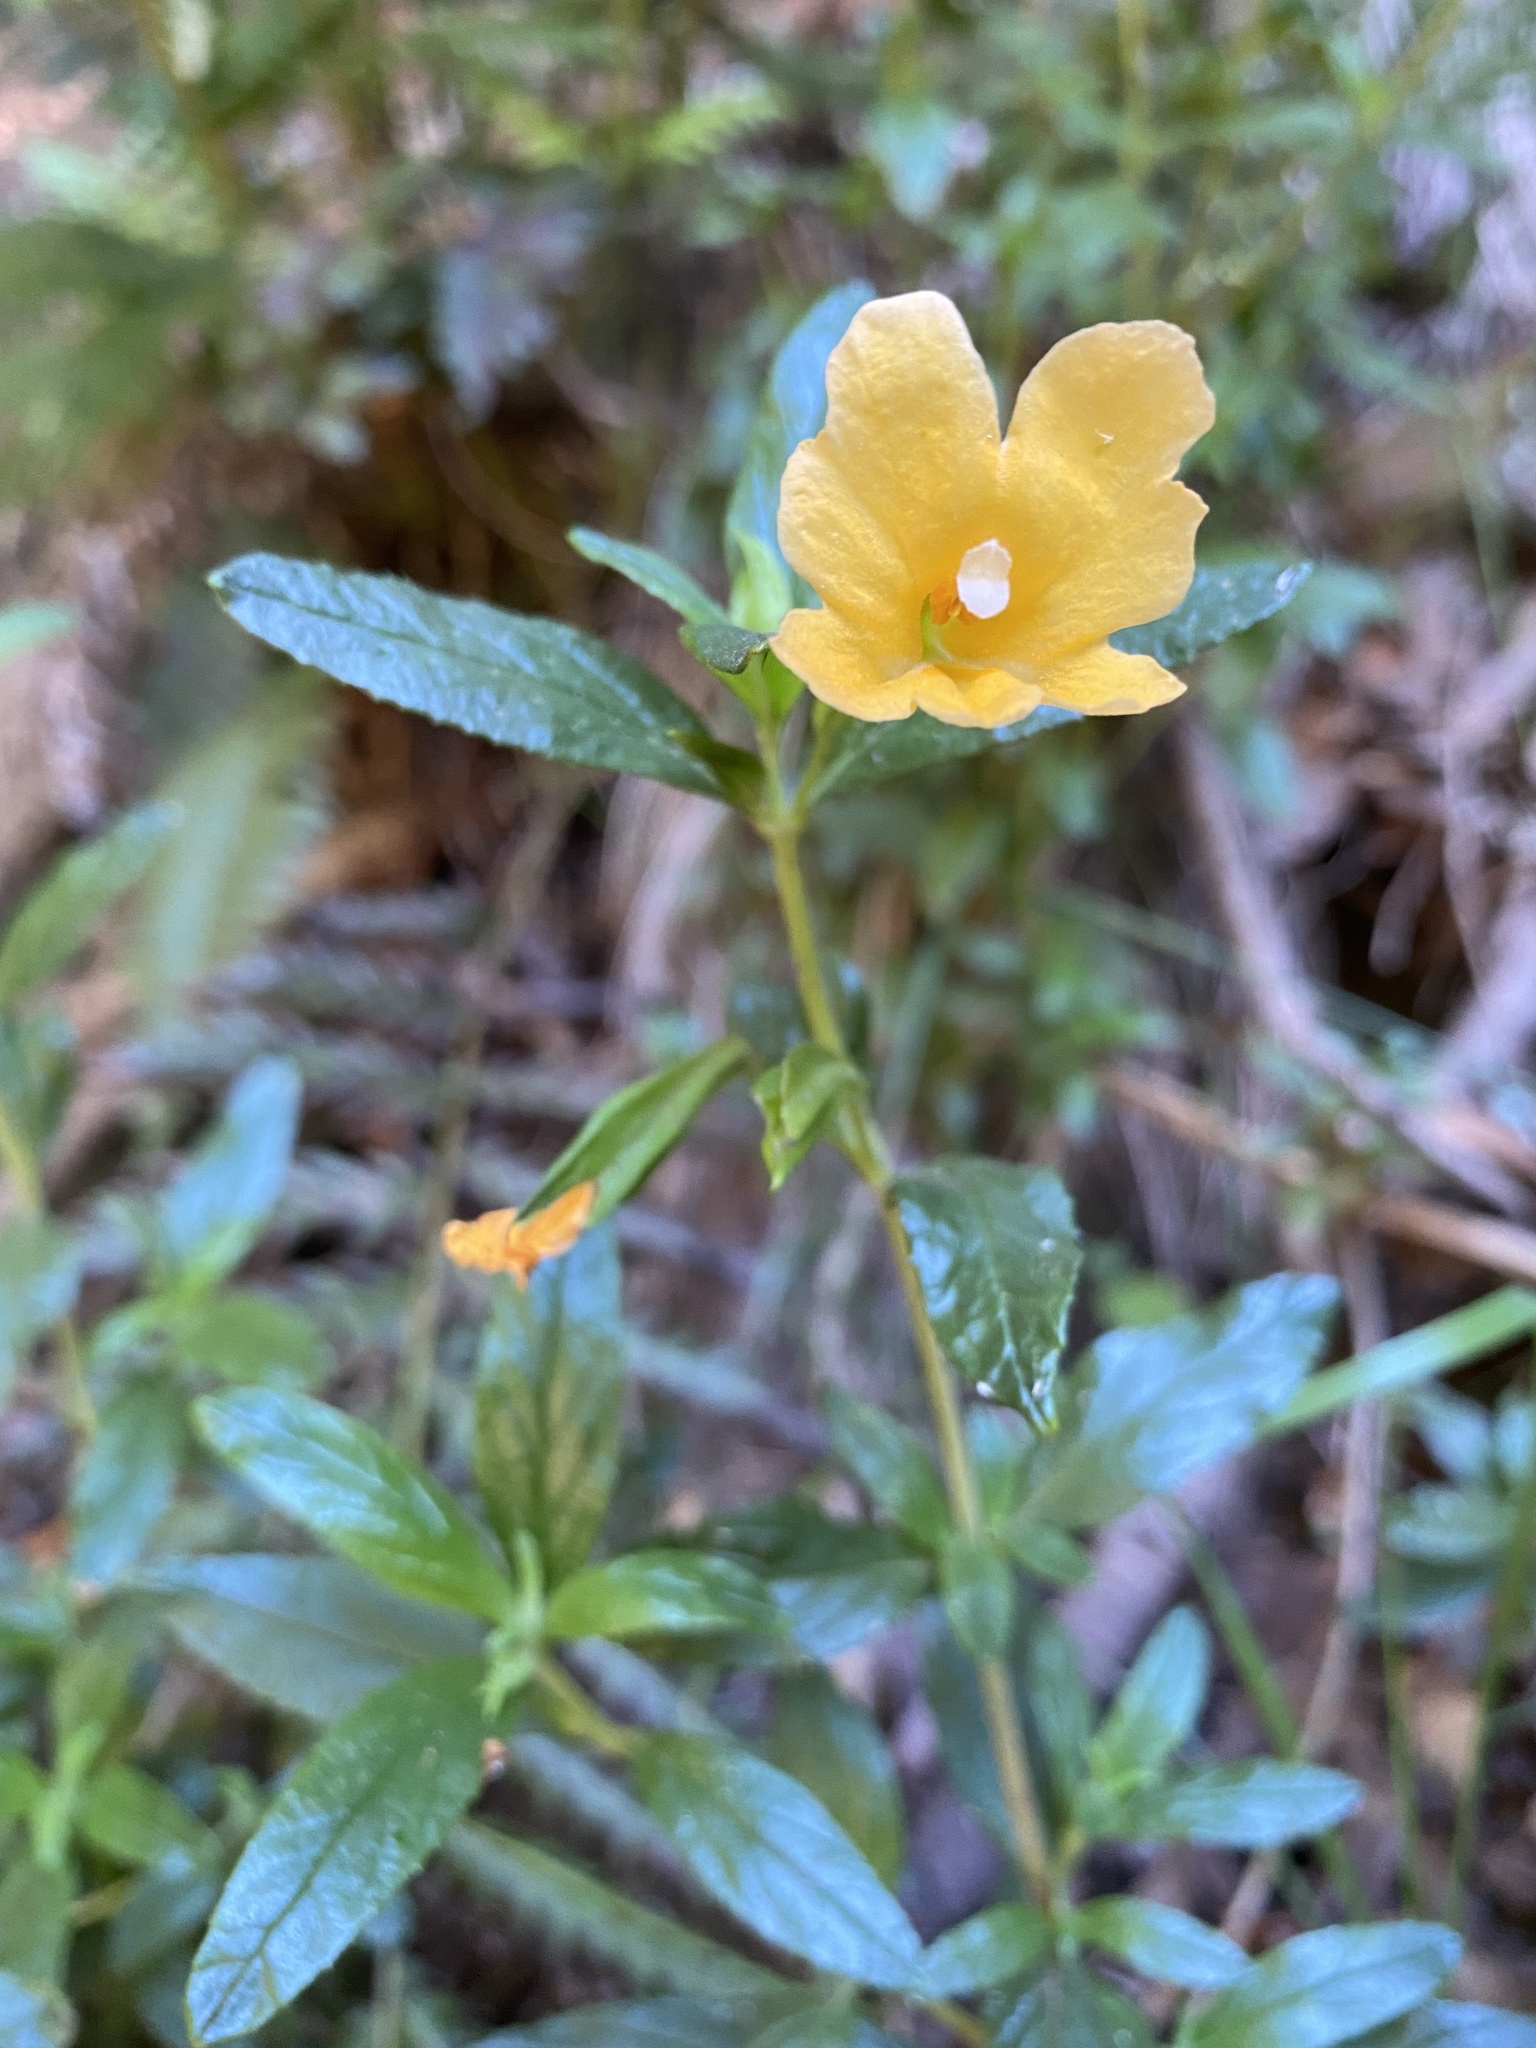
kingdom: Plantae
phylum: Tracheophyta
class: Magnoliopsida
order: Lamiales
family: Phrymaceae
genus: Diplacus
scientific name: Diplacus aurantiacus
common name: Bush monkey-flower
